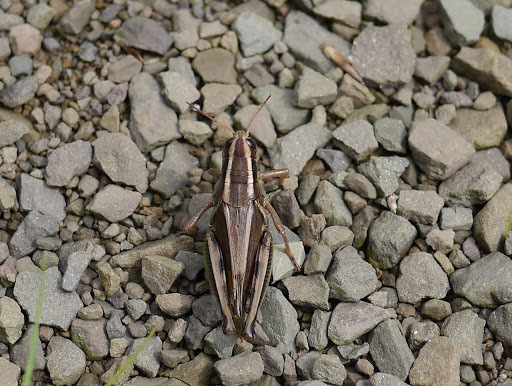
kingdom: Animalia
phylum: Arthropoda
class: Insecta
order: Orthoptera
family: Acrididae
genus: Melanoplus
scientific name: Melanoplus bivittatus
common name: Two-striped grasshopper
